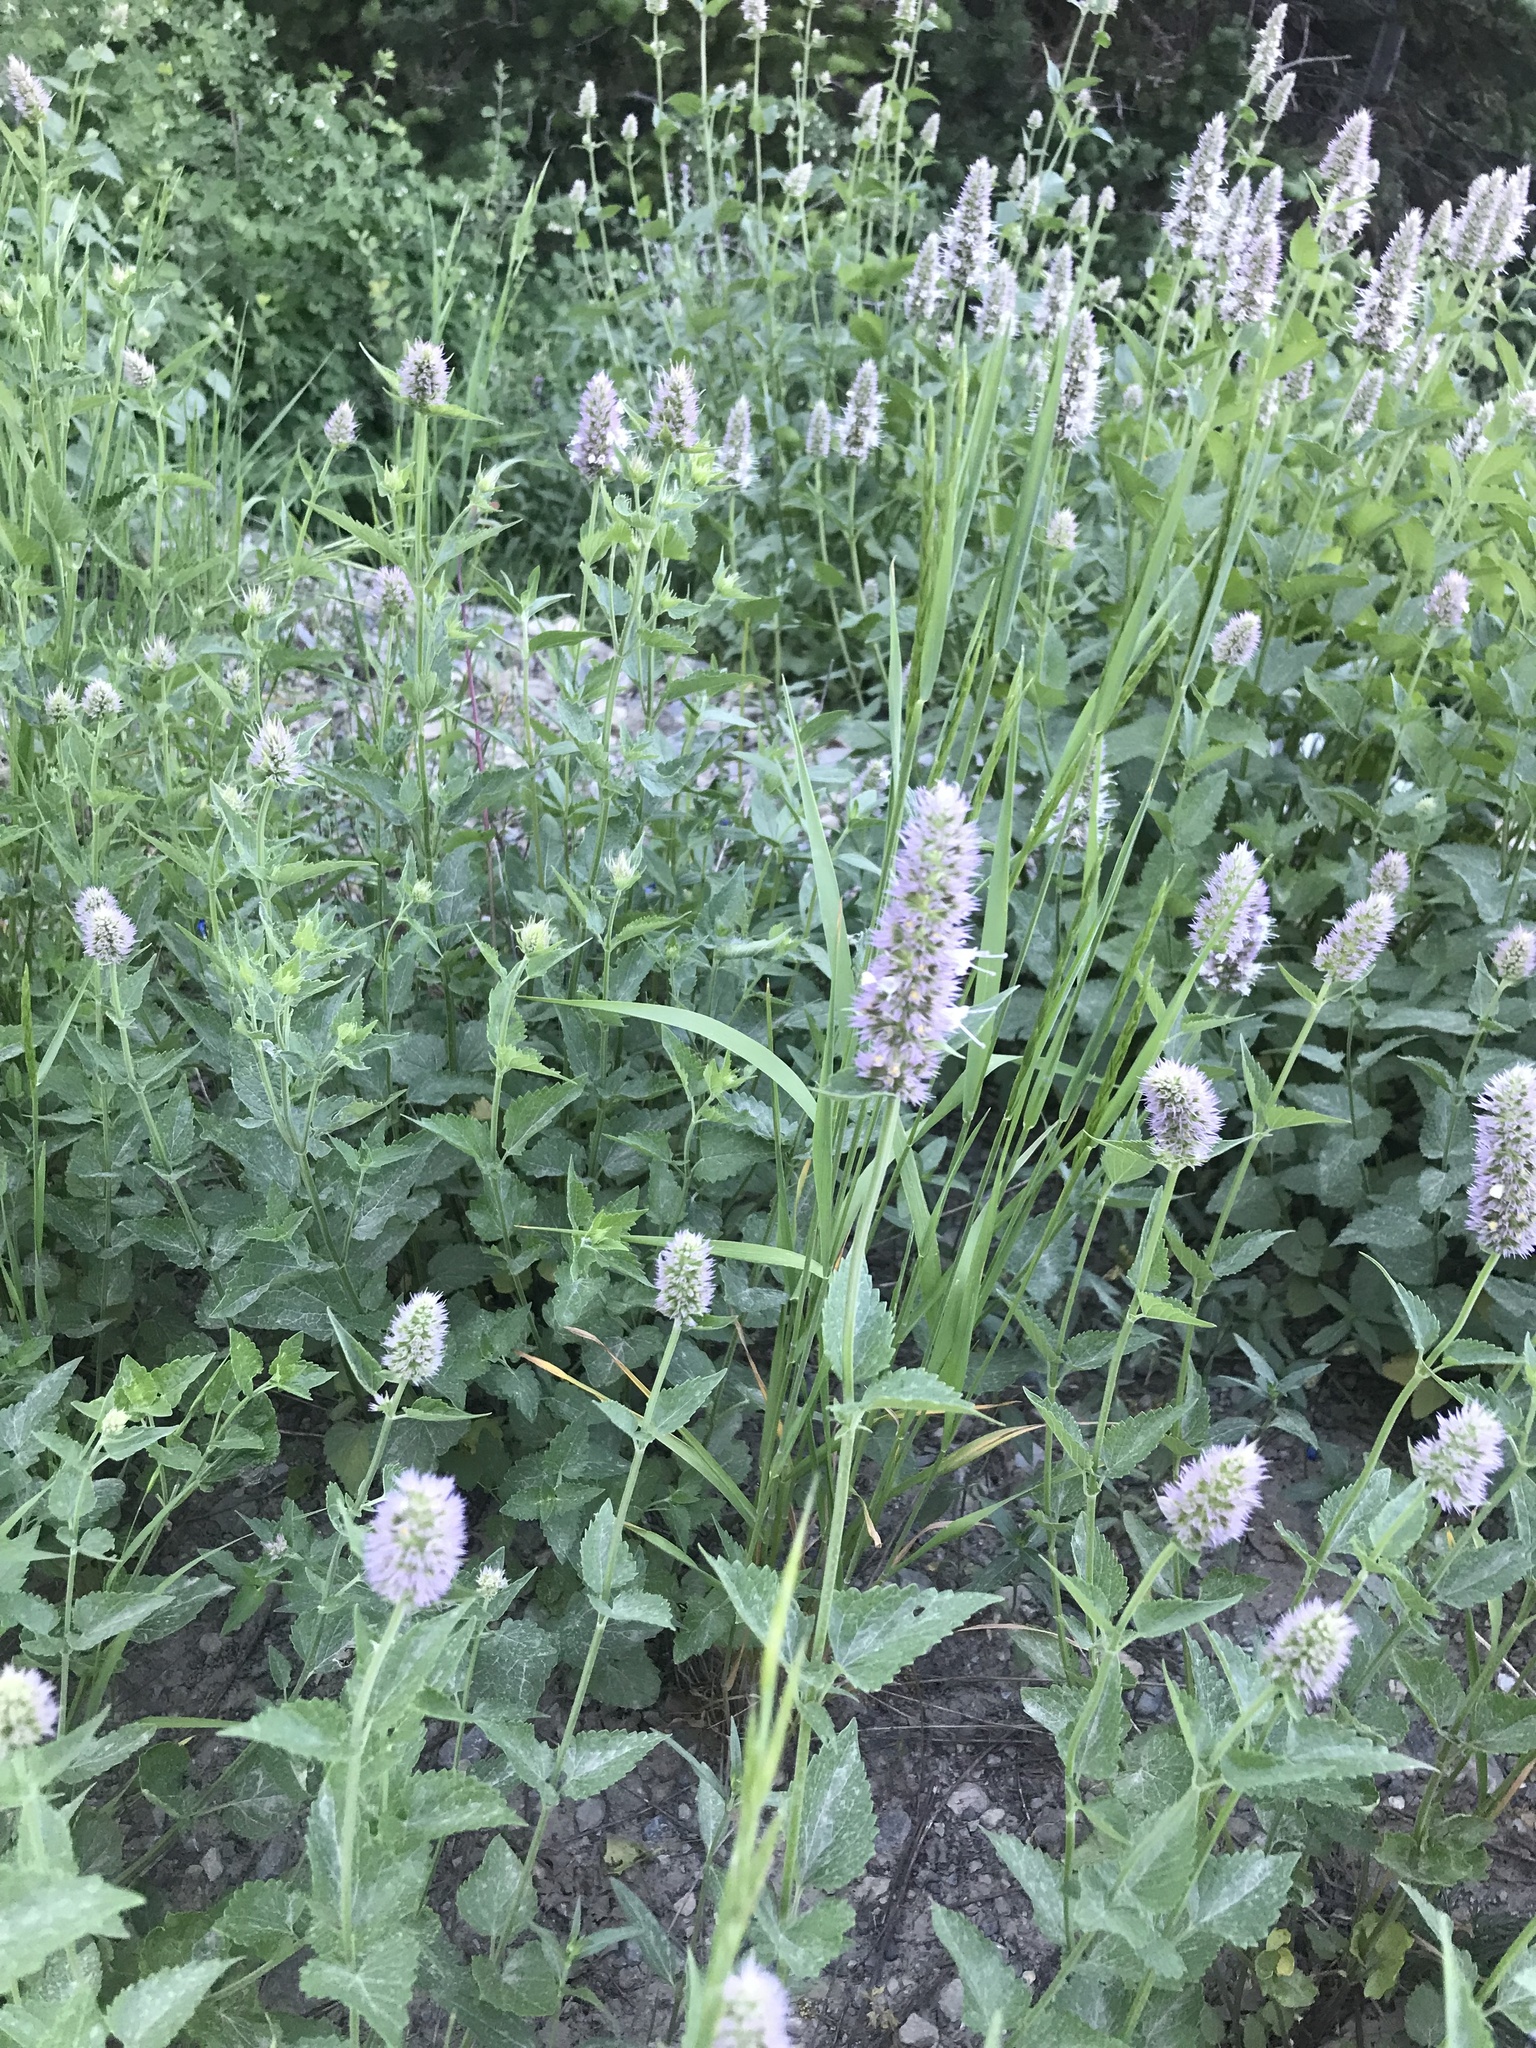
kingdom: Plantae
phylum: Tracheophyta
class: Magnoliopsida
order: Lamiales
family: Lamiaceae
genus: Agastache
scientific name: Agastache urticifolia
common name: Horsemint giant hyssop
